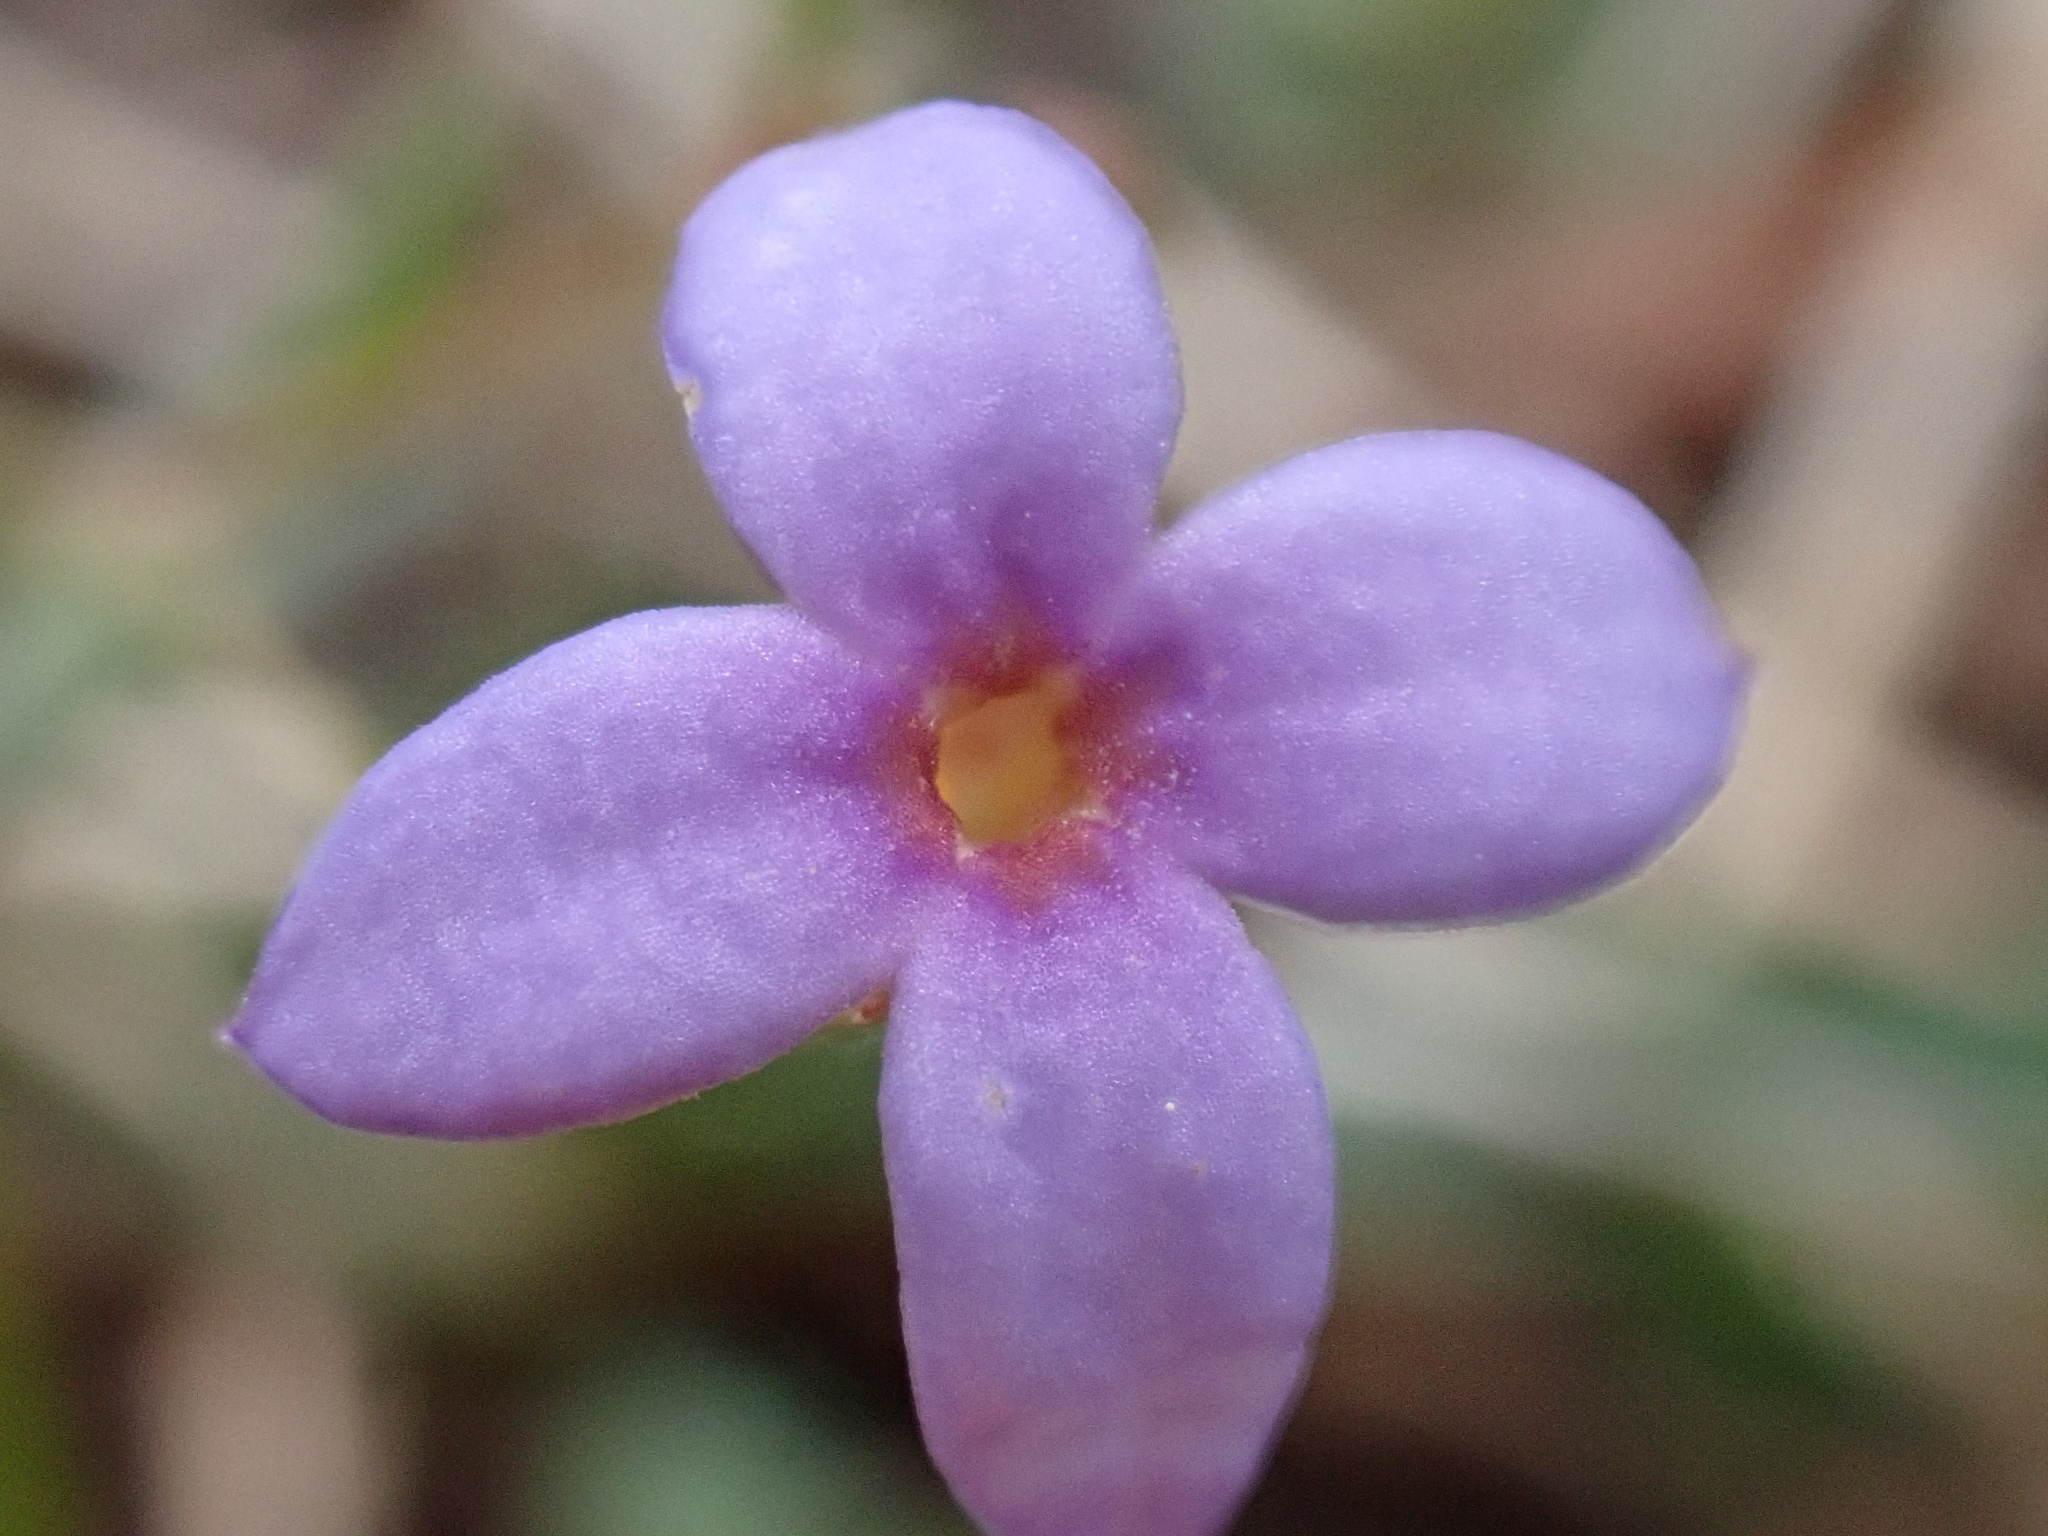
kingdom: Plantae
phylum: Tracheophyta
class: Magnoliopsida
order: Gentianales
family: Rubiaceae
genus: Houstonia
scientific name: Houstonia pusilla
